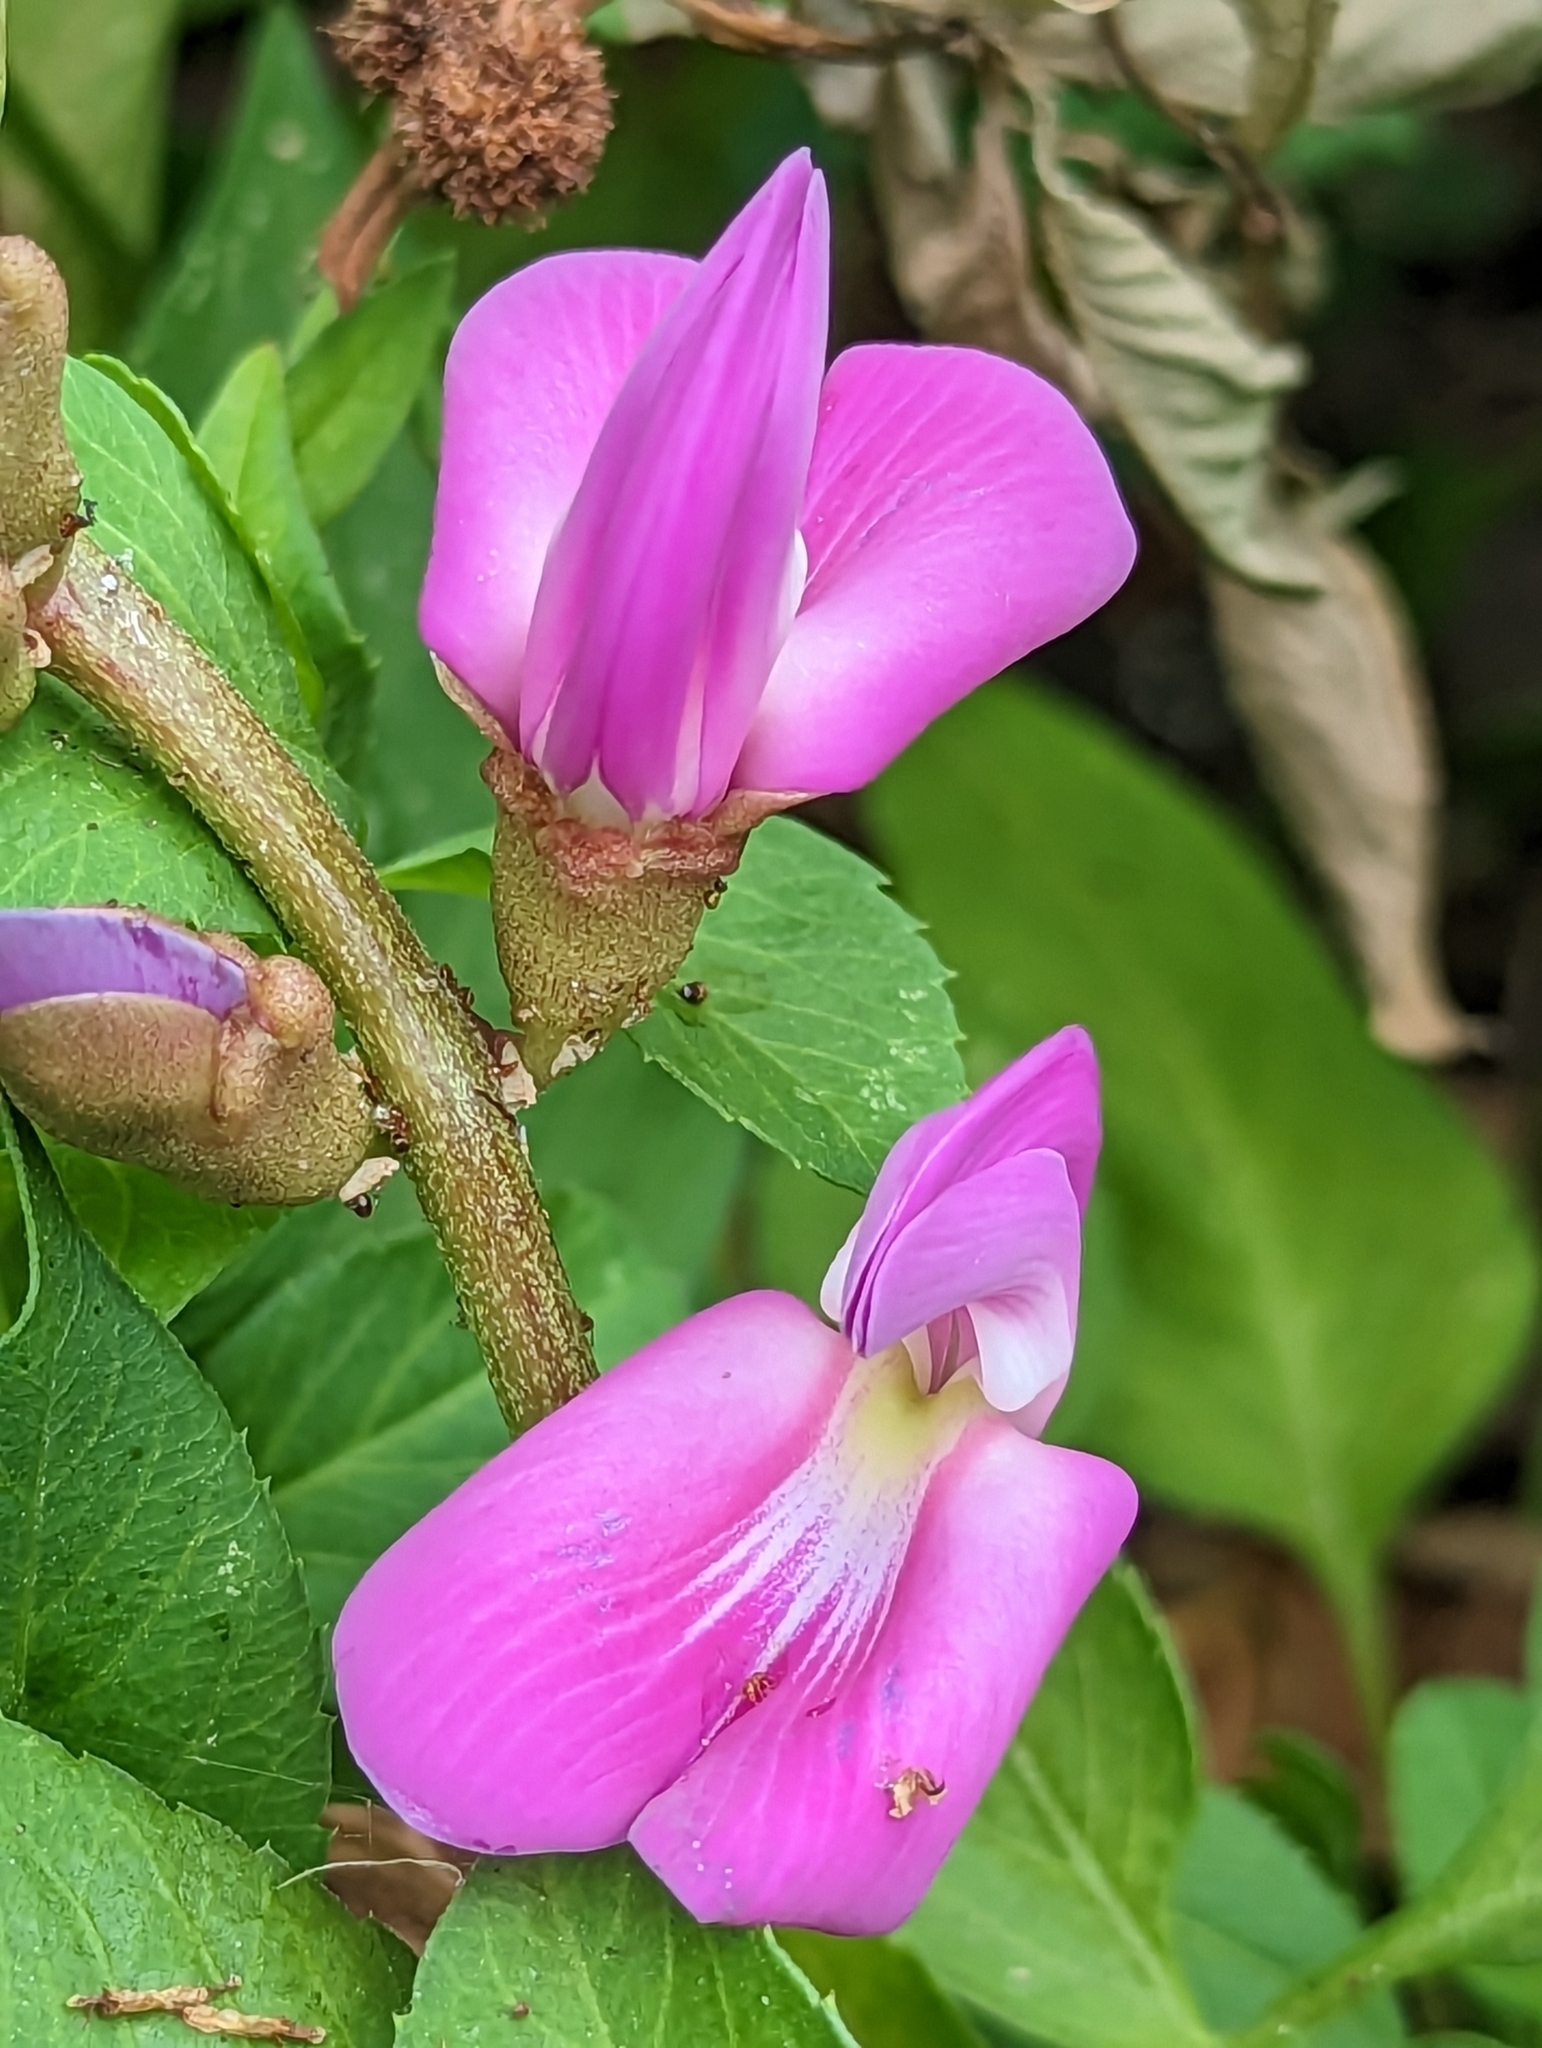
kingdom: Plantae
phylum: Tracheophyta
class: Magnoliopsida
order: Fabales
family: Fabaceae
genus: Canavalia
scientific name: Canavalia rosea
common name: Beach-bean
